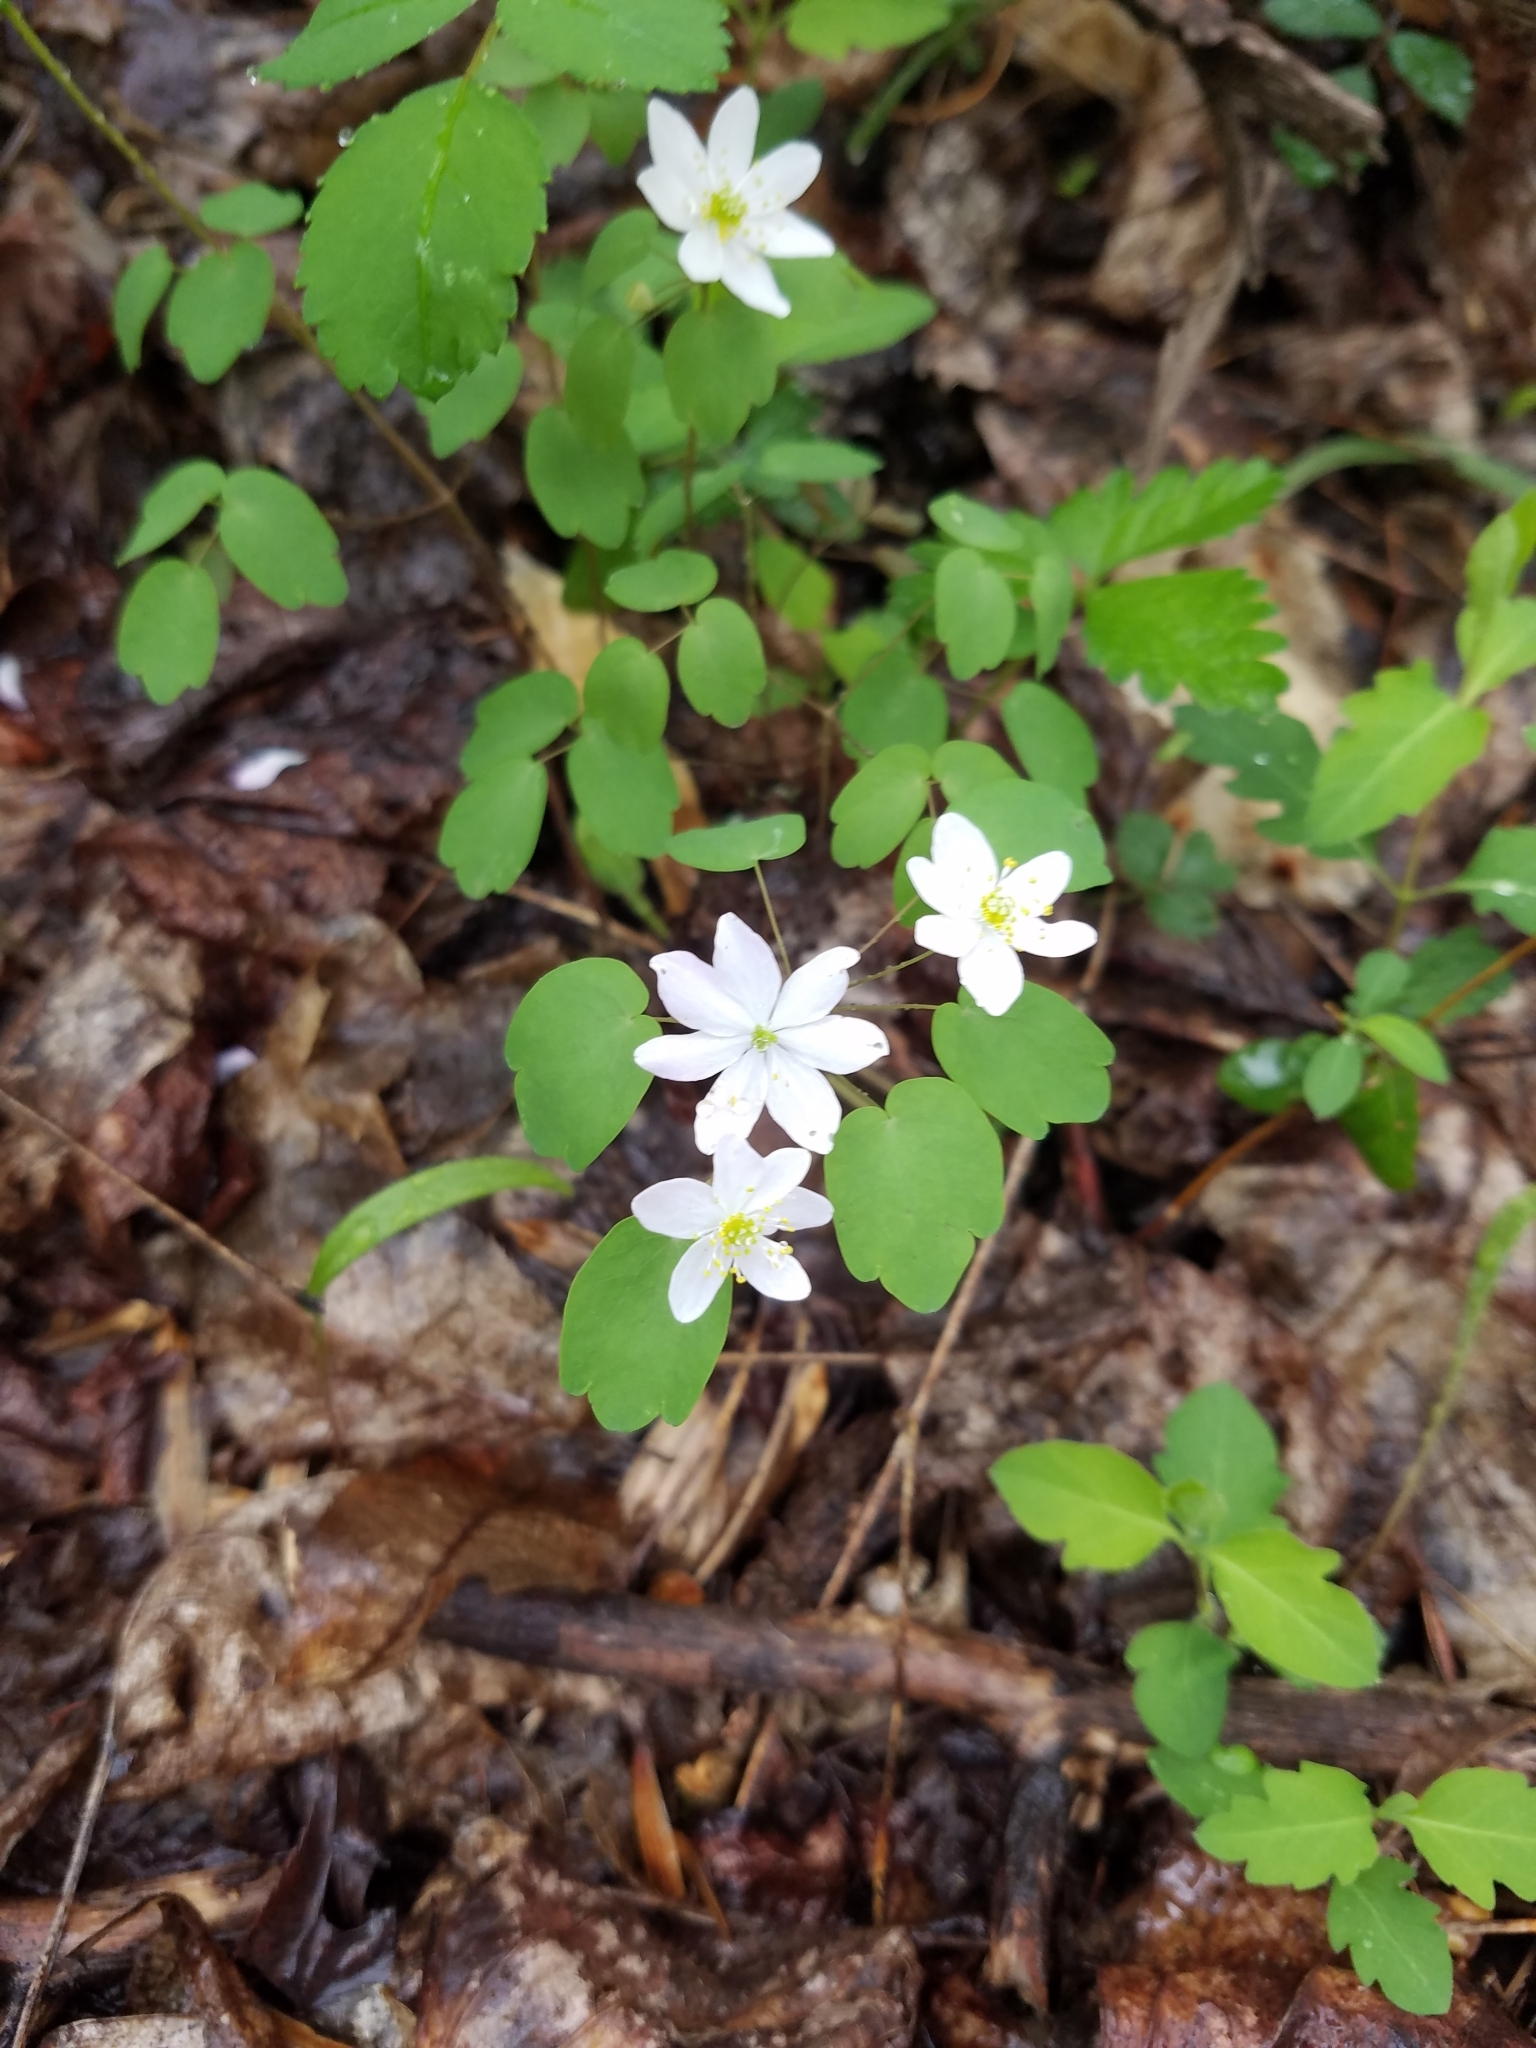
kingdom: Plantae
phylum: Tracheophyta
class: Magnoliopsida
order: Ranunculales
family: Ranunculaceae
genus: Thalictrum
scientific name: Thalictrum thalictroides
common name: Rue-anemone
